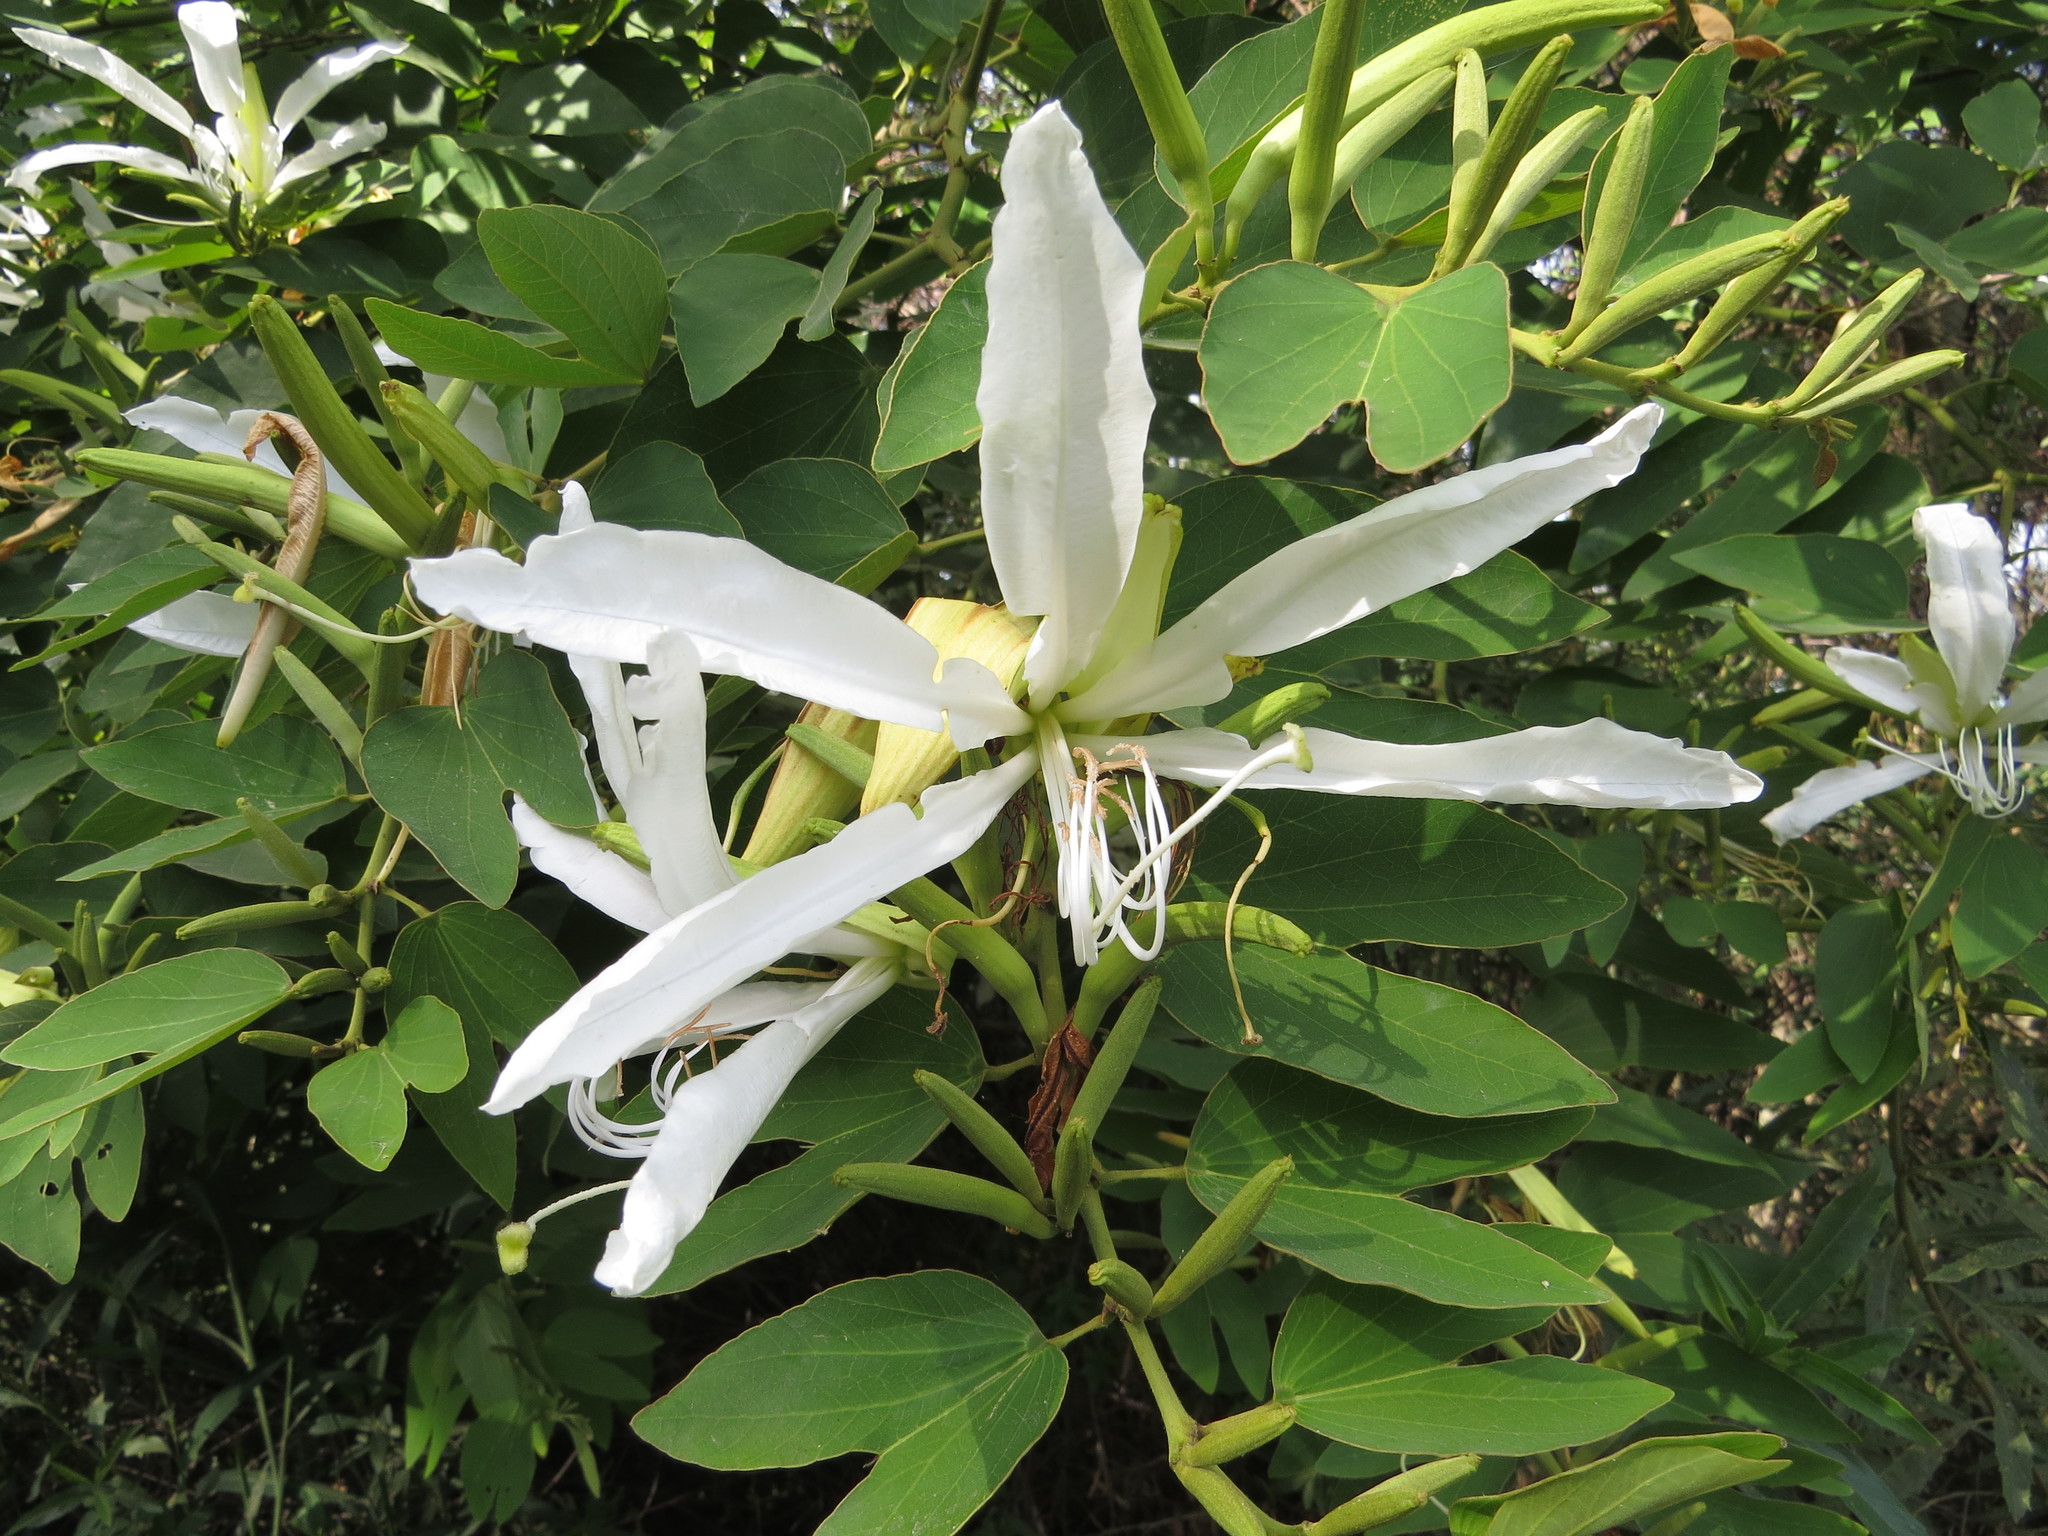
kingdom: Plantae
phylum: Tracheophyta
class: Magnoliopsida
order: Fabales
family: Fabaceae
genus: Bauhinia
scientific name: Bauhinia forficata
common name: Orchid tree
